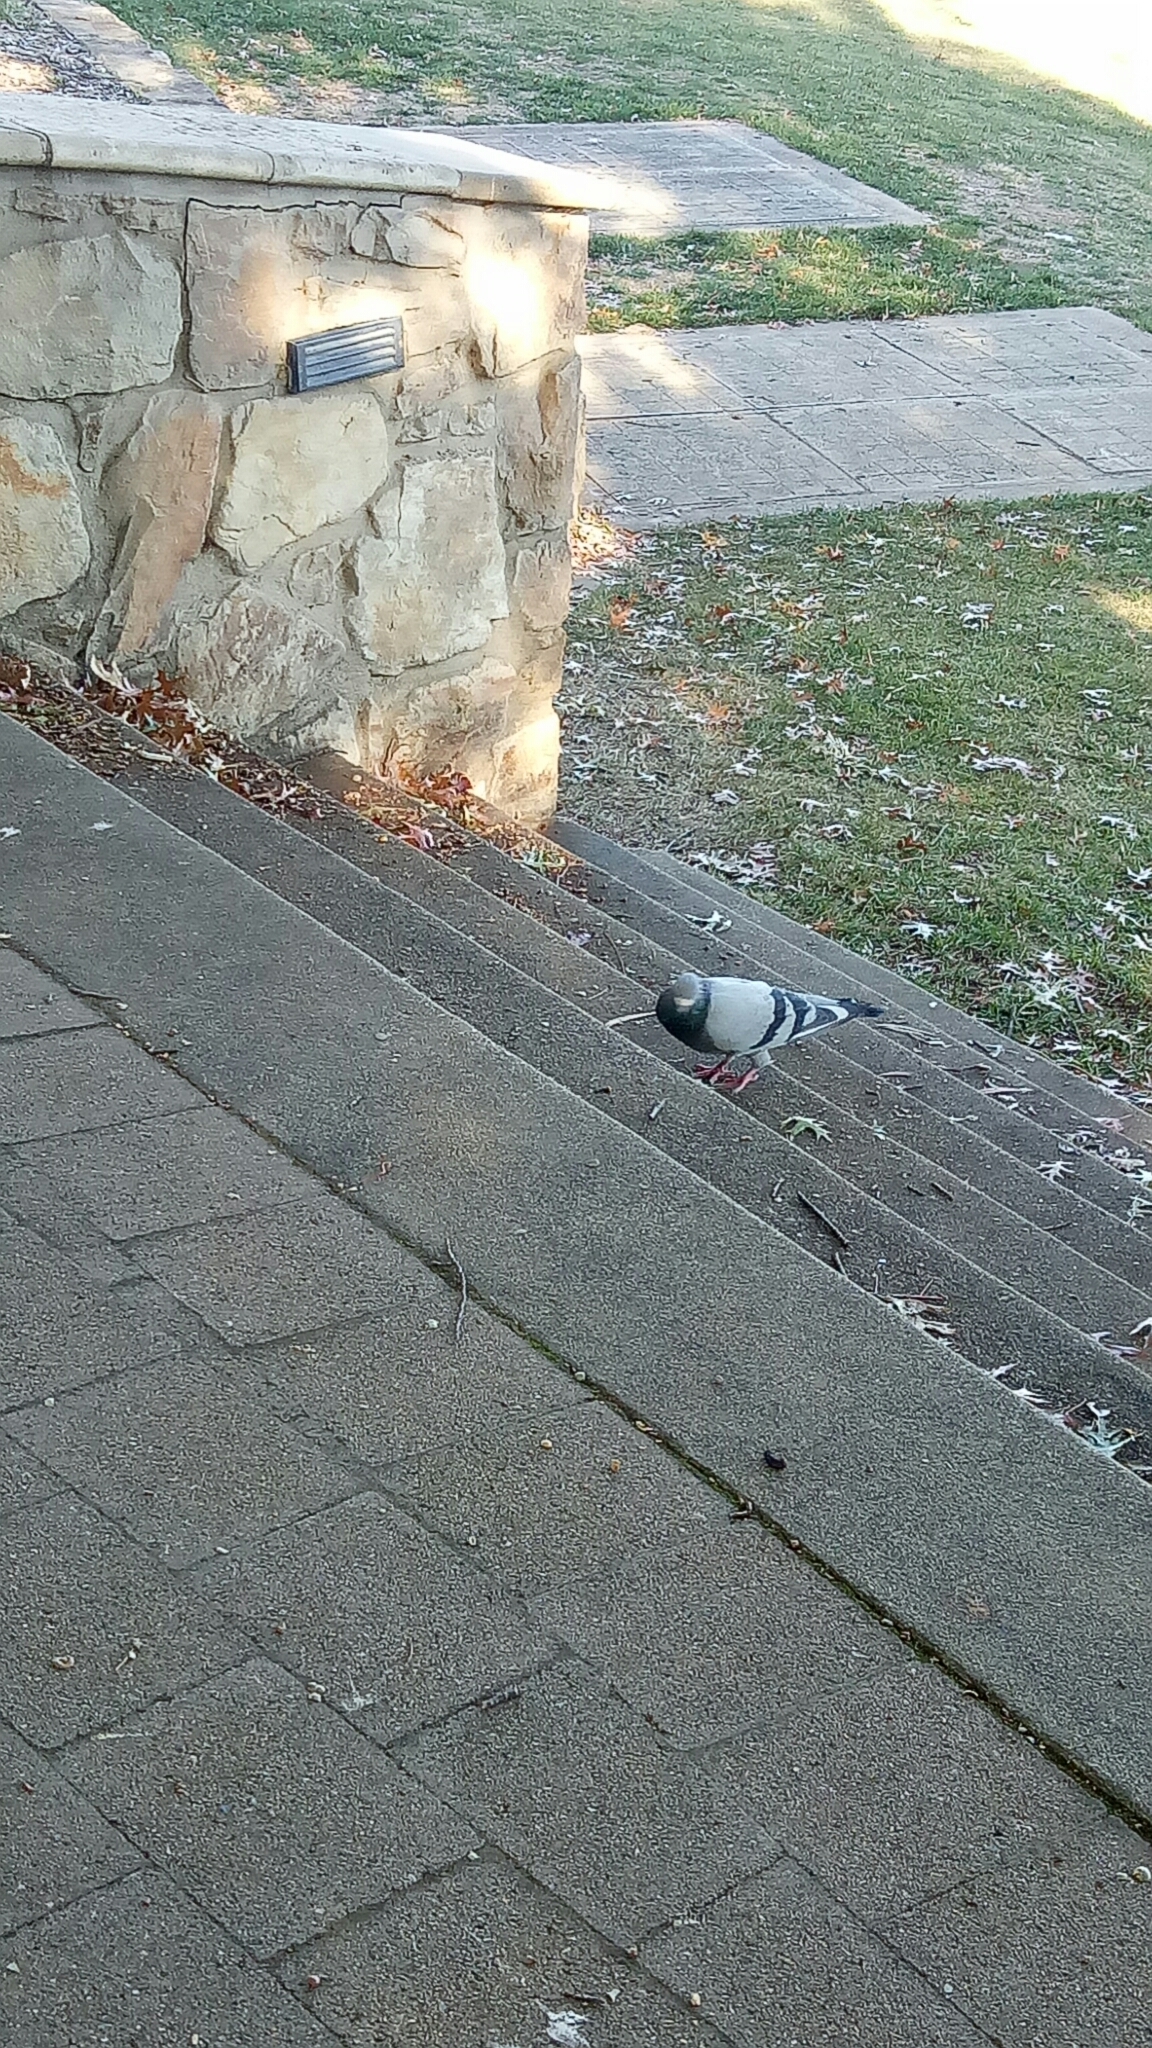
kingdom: Animalia
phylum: Chordata
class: Aves
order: Columbiformes
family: Columbidae
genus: Columba
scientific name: Columba livia
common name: Rock pigeon
